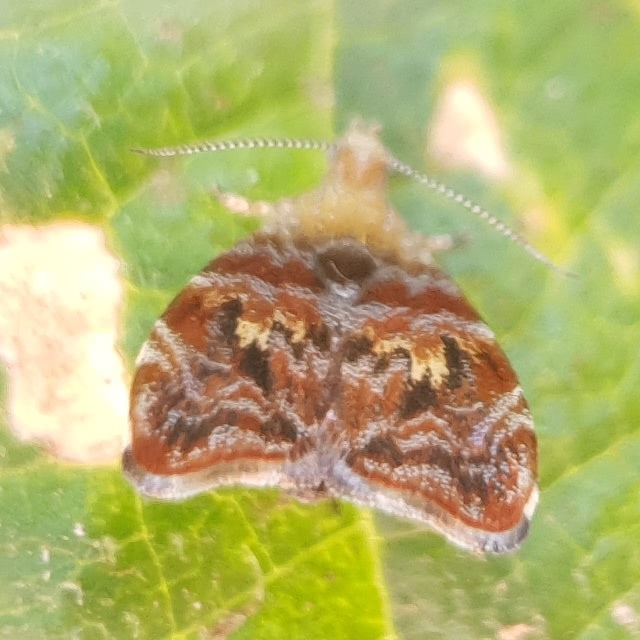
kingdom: Animalia
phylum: Arthropoda
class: Insecta
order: Lepidoptera
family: Choreutidae
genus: Choreutis
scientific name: Choreutis sexfasciella
